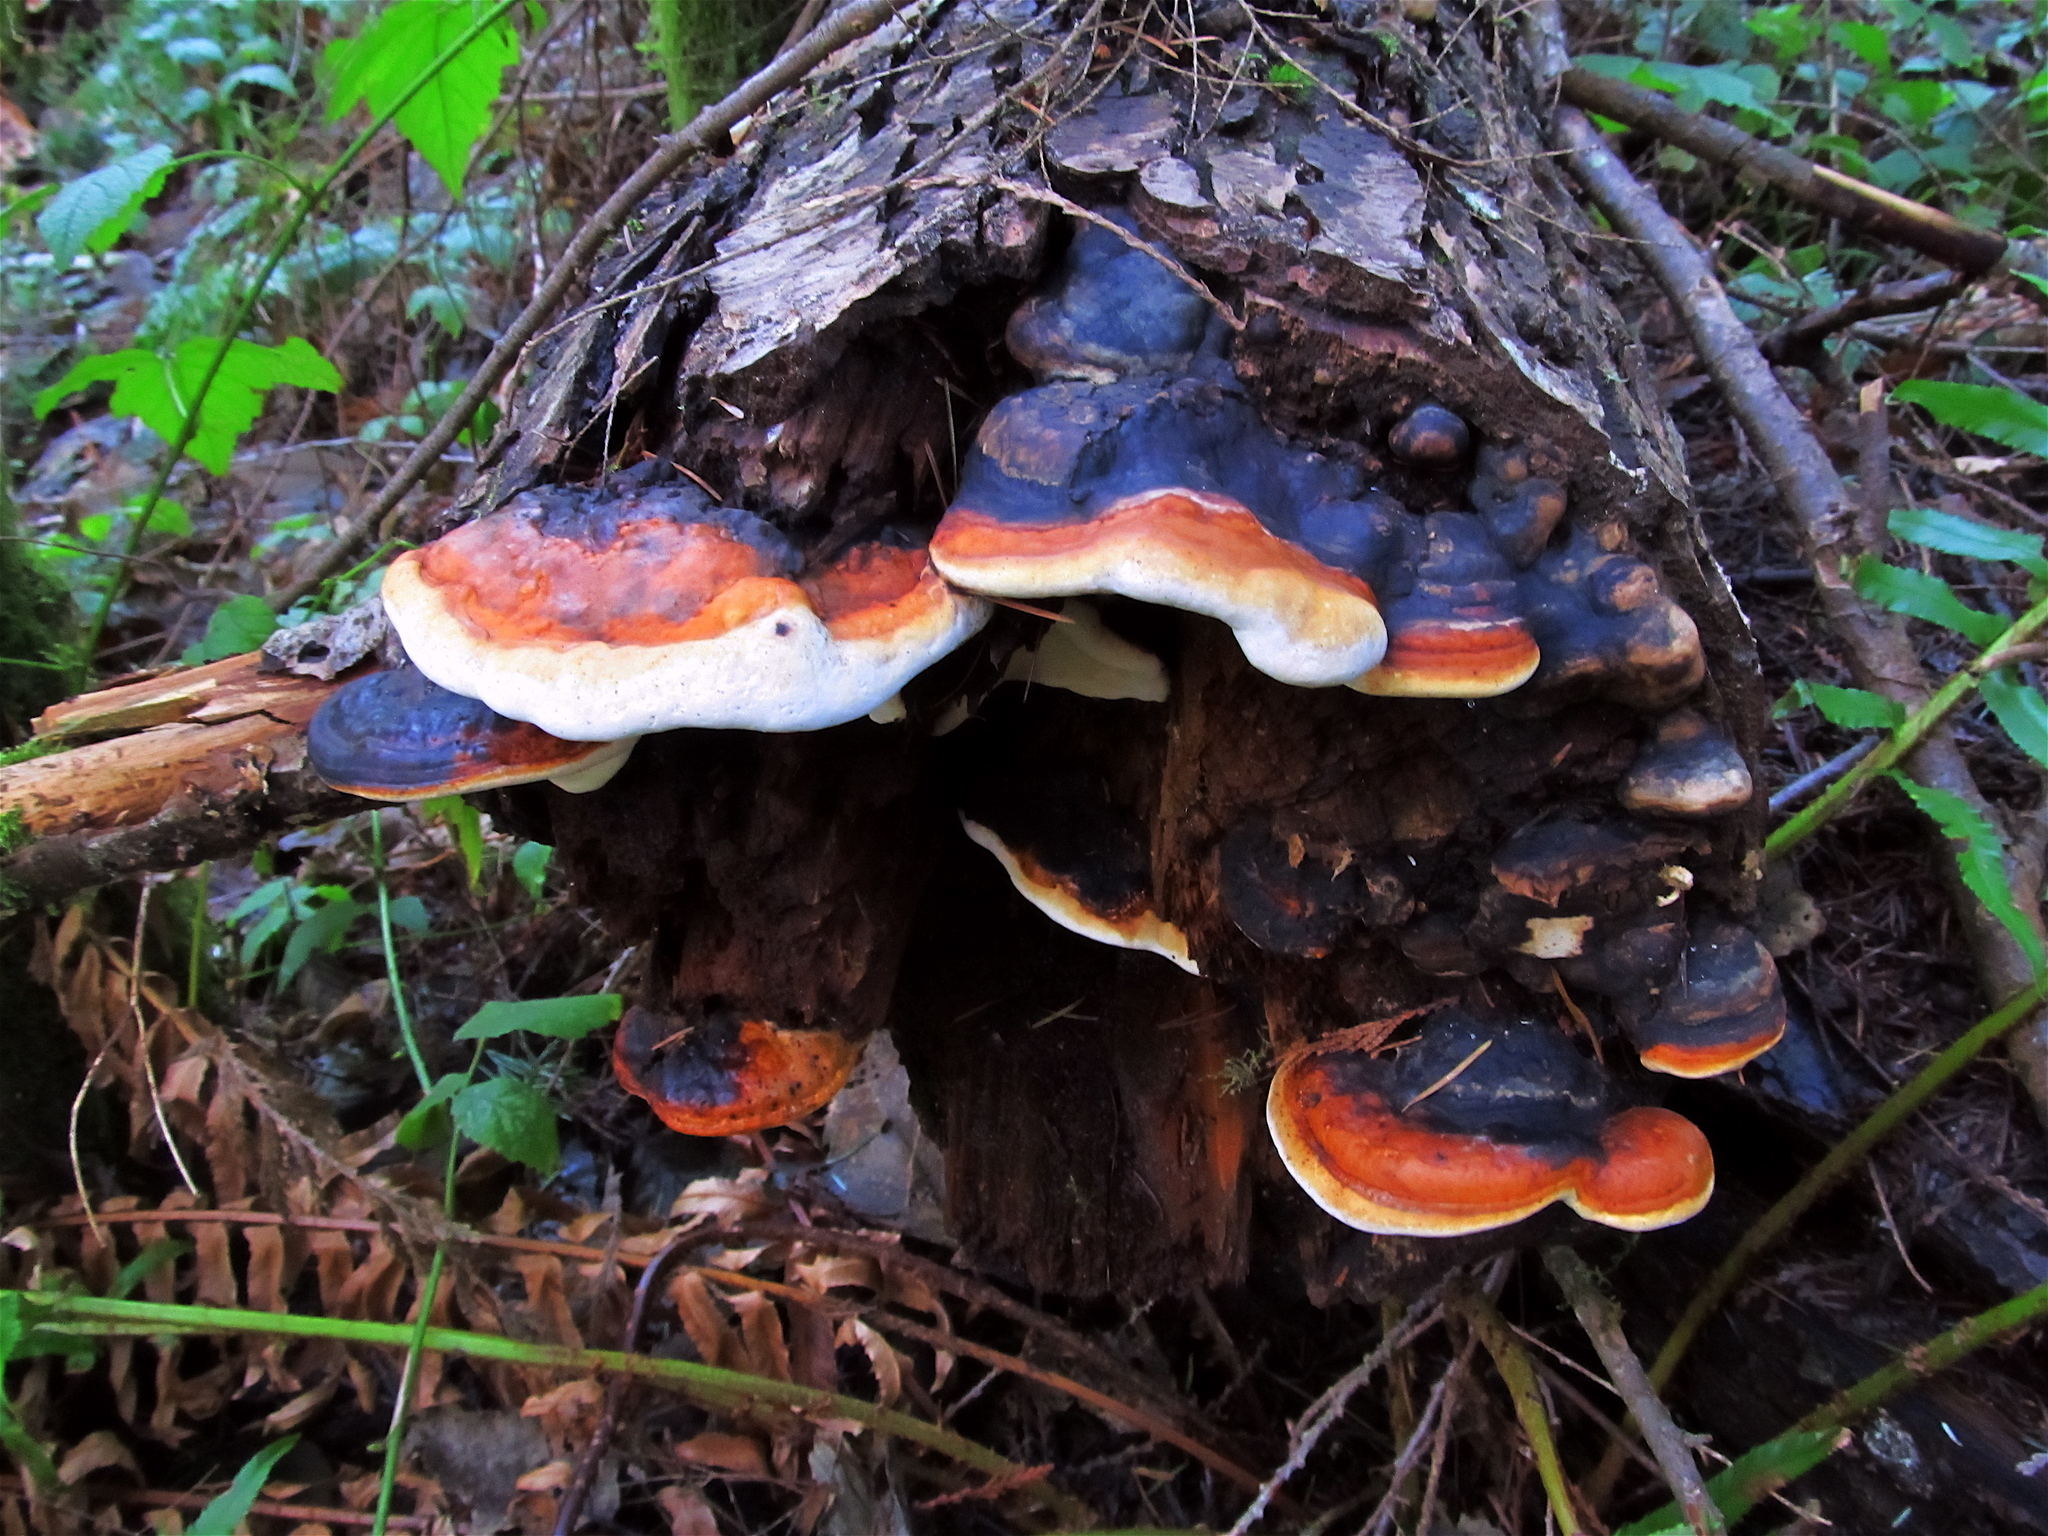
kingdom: Fungi
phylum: Basidiomycota
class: Agaricomycetes
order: Polyporales
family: Fomitopsidaceae
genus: Fomitopsis
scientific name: Fomitopsis mounceae
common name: Northern red belt
